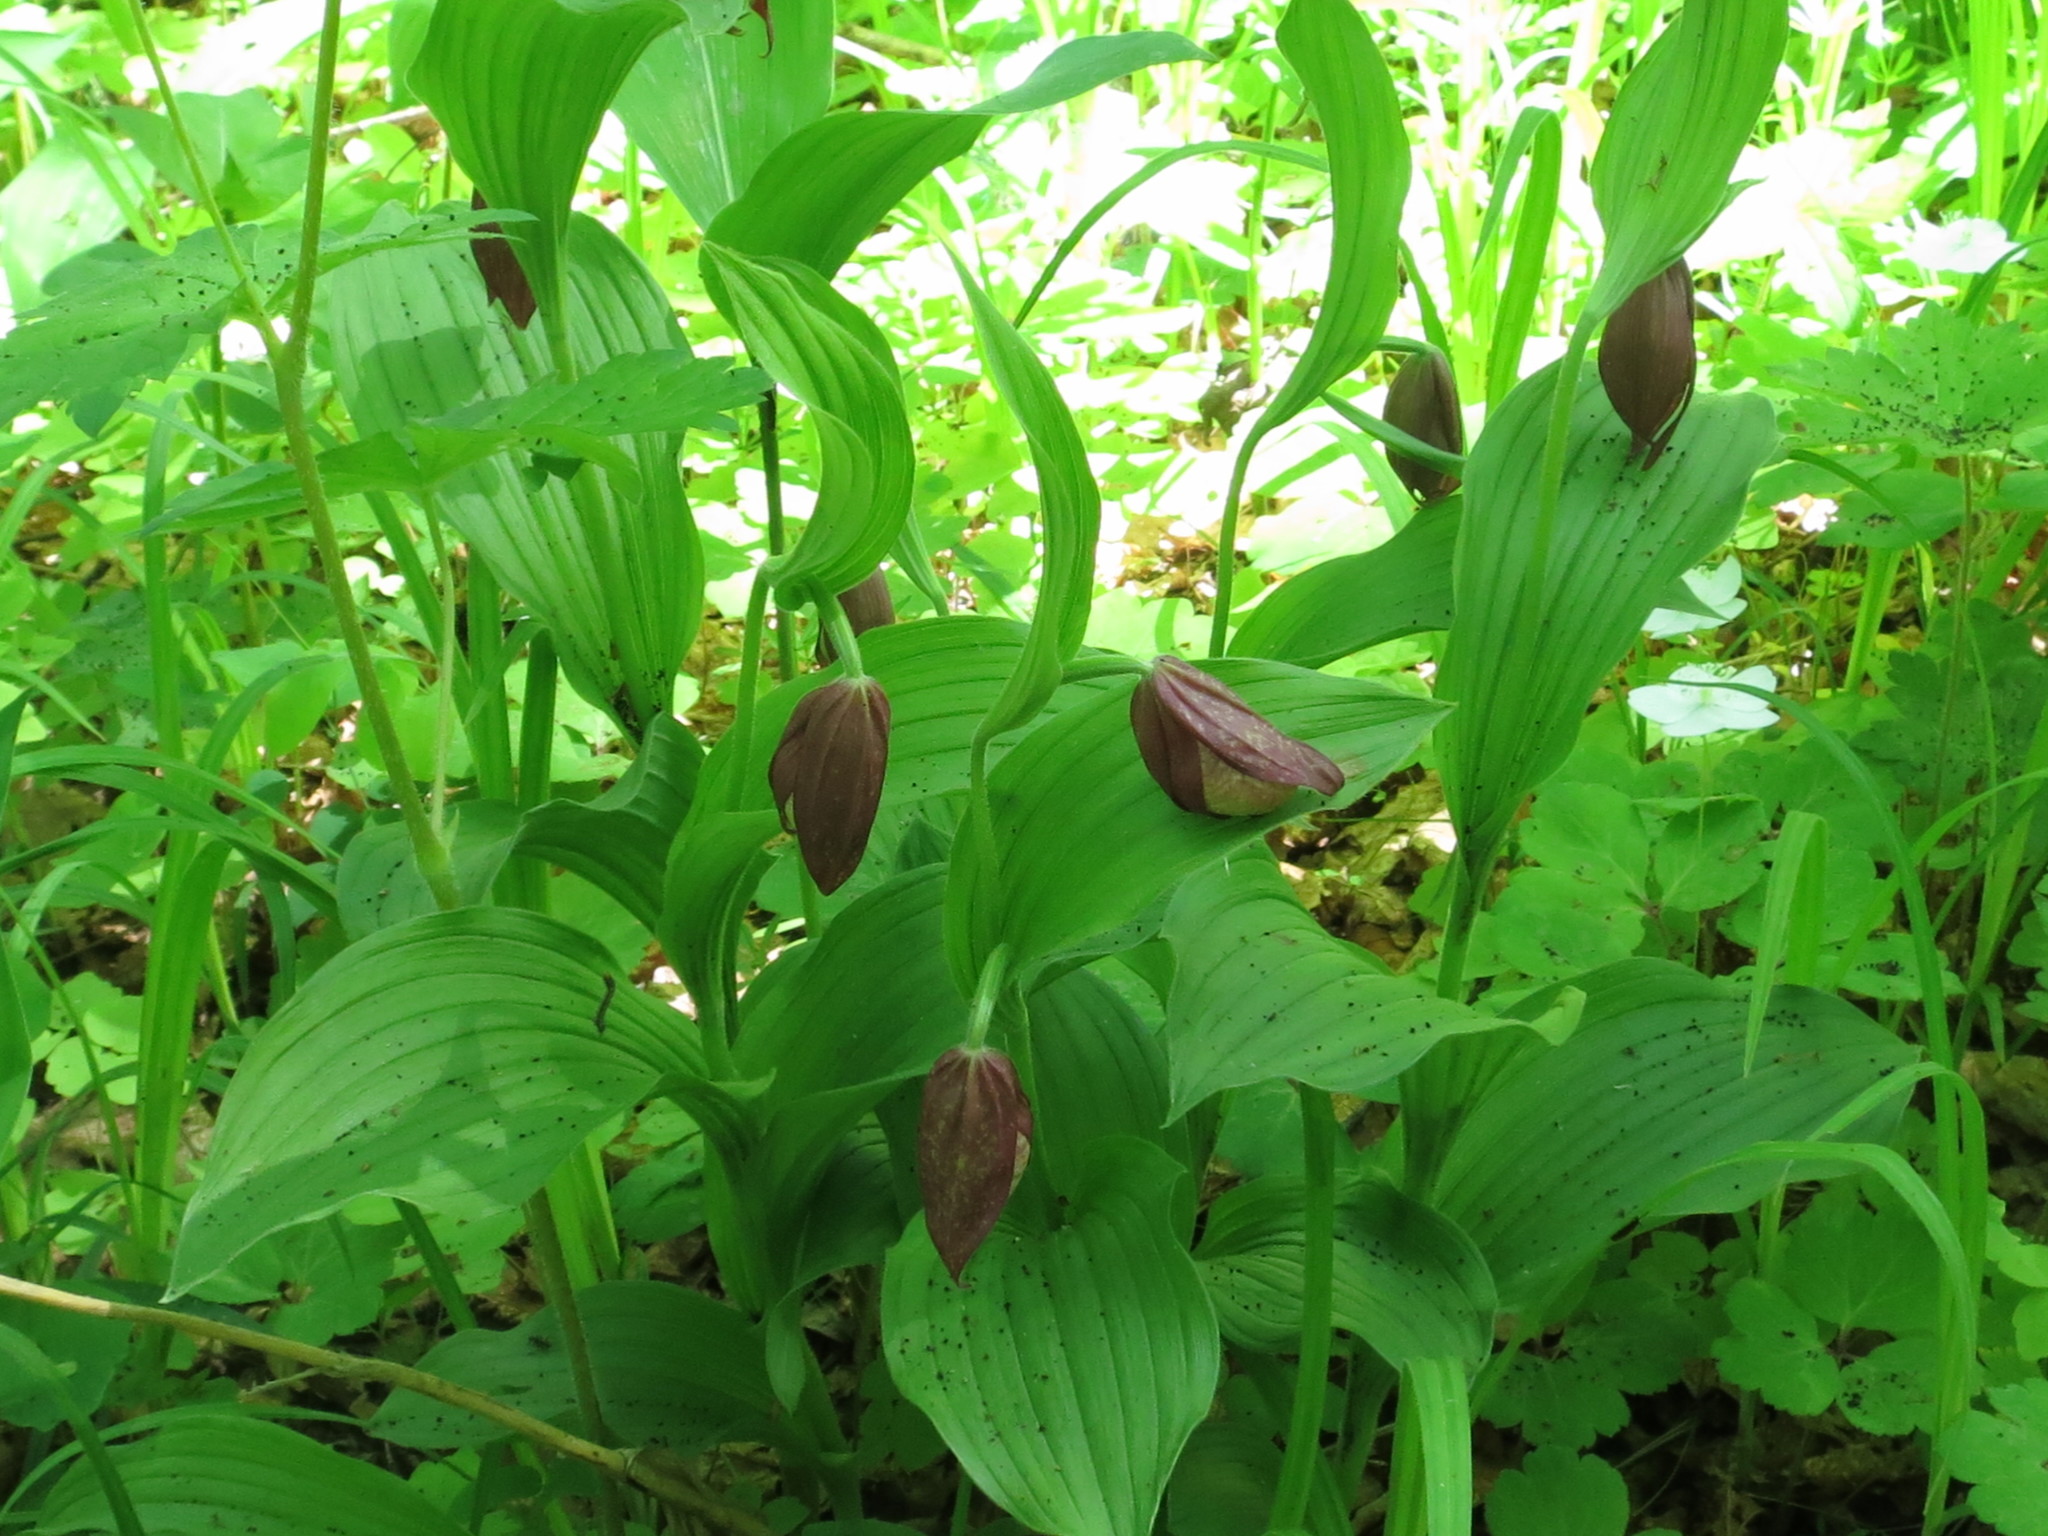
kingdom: Plantae
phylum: Tracheophyta
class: Liliopsida
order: Asparagales
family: Orchidaceae
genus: Cypripedium
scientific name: Cypripedium calceolus
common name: Lady's-slipper
